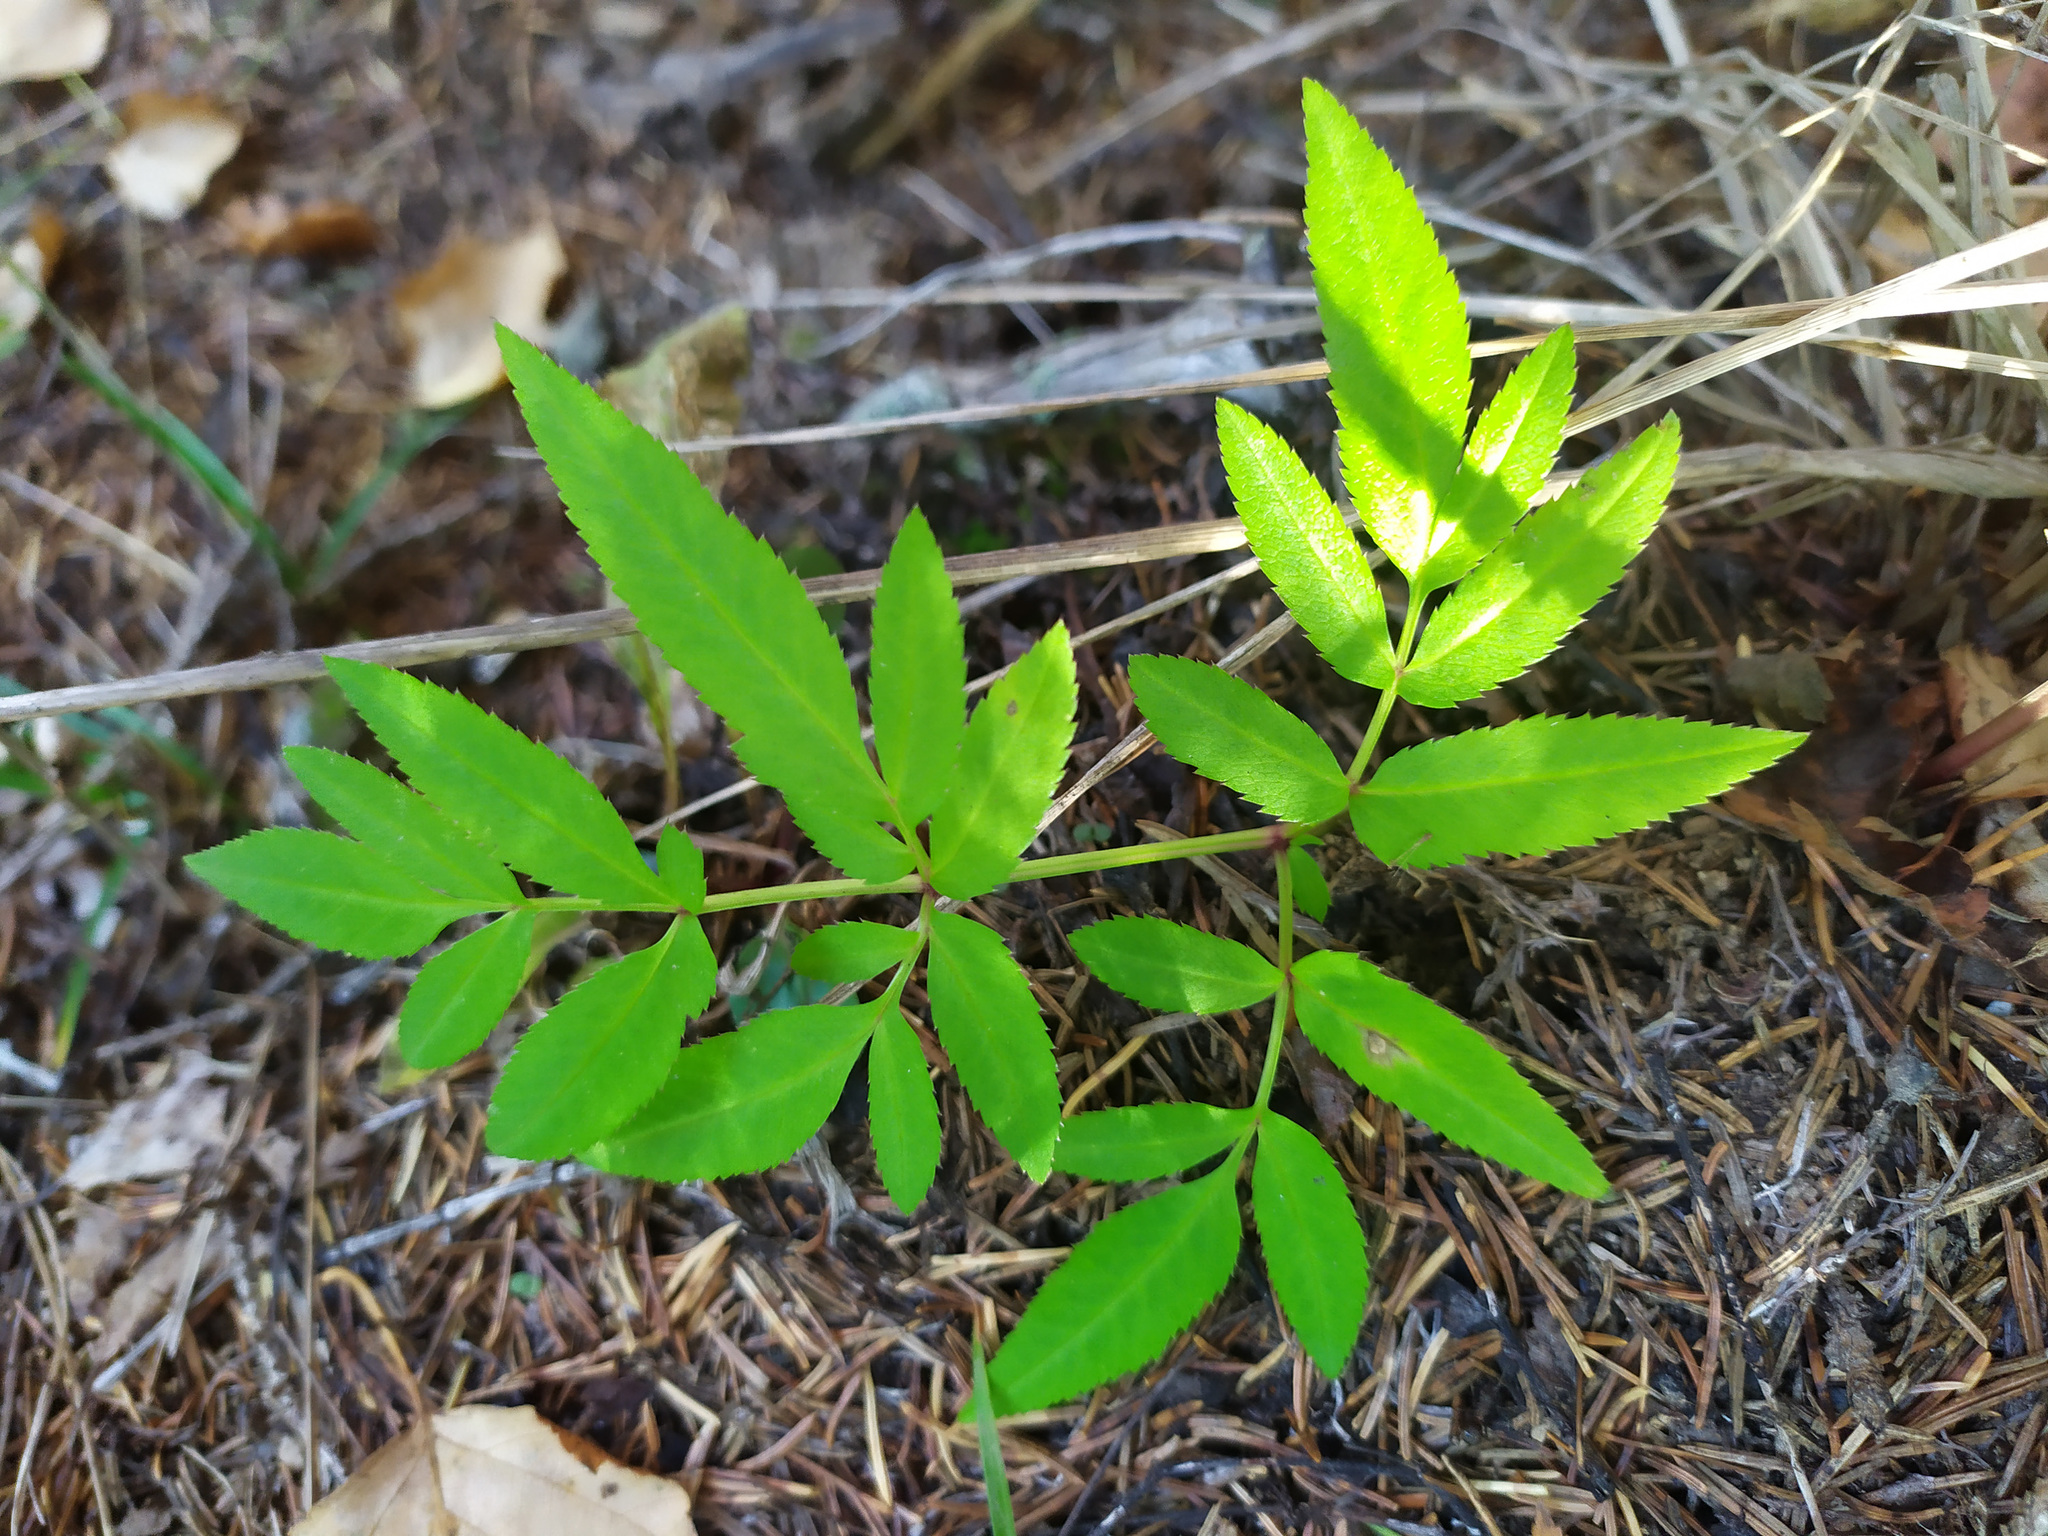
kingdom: Plantae
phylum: Tracheophyta
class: Magnoliopsida
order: Apiales
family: Apiaceae
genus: Angelica
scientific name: Angelica sylvestris
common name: Wild angelica
